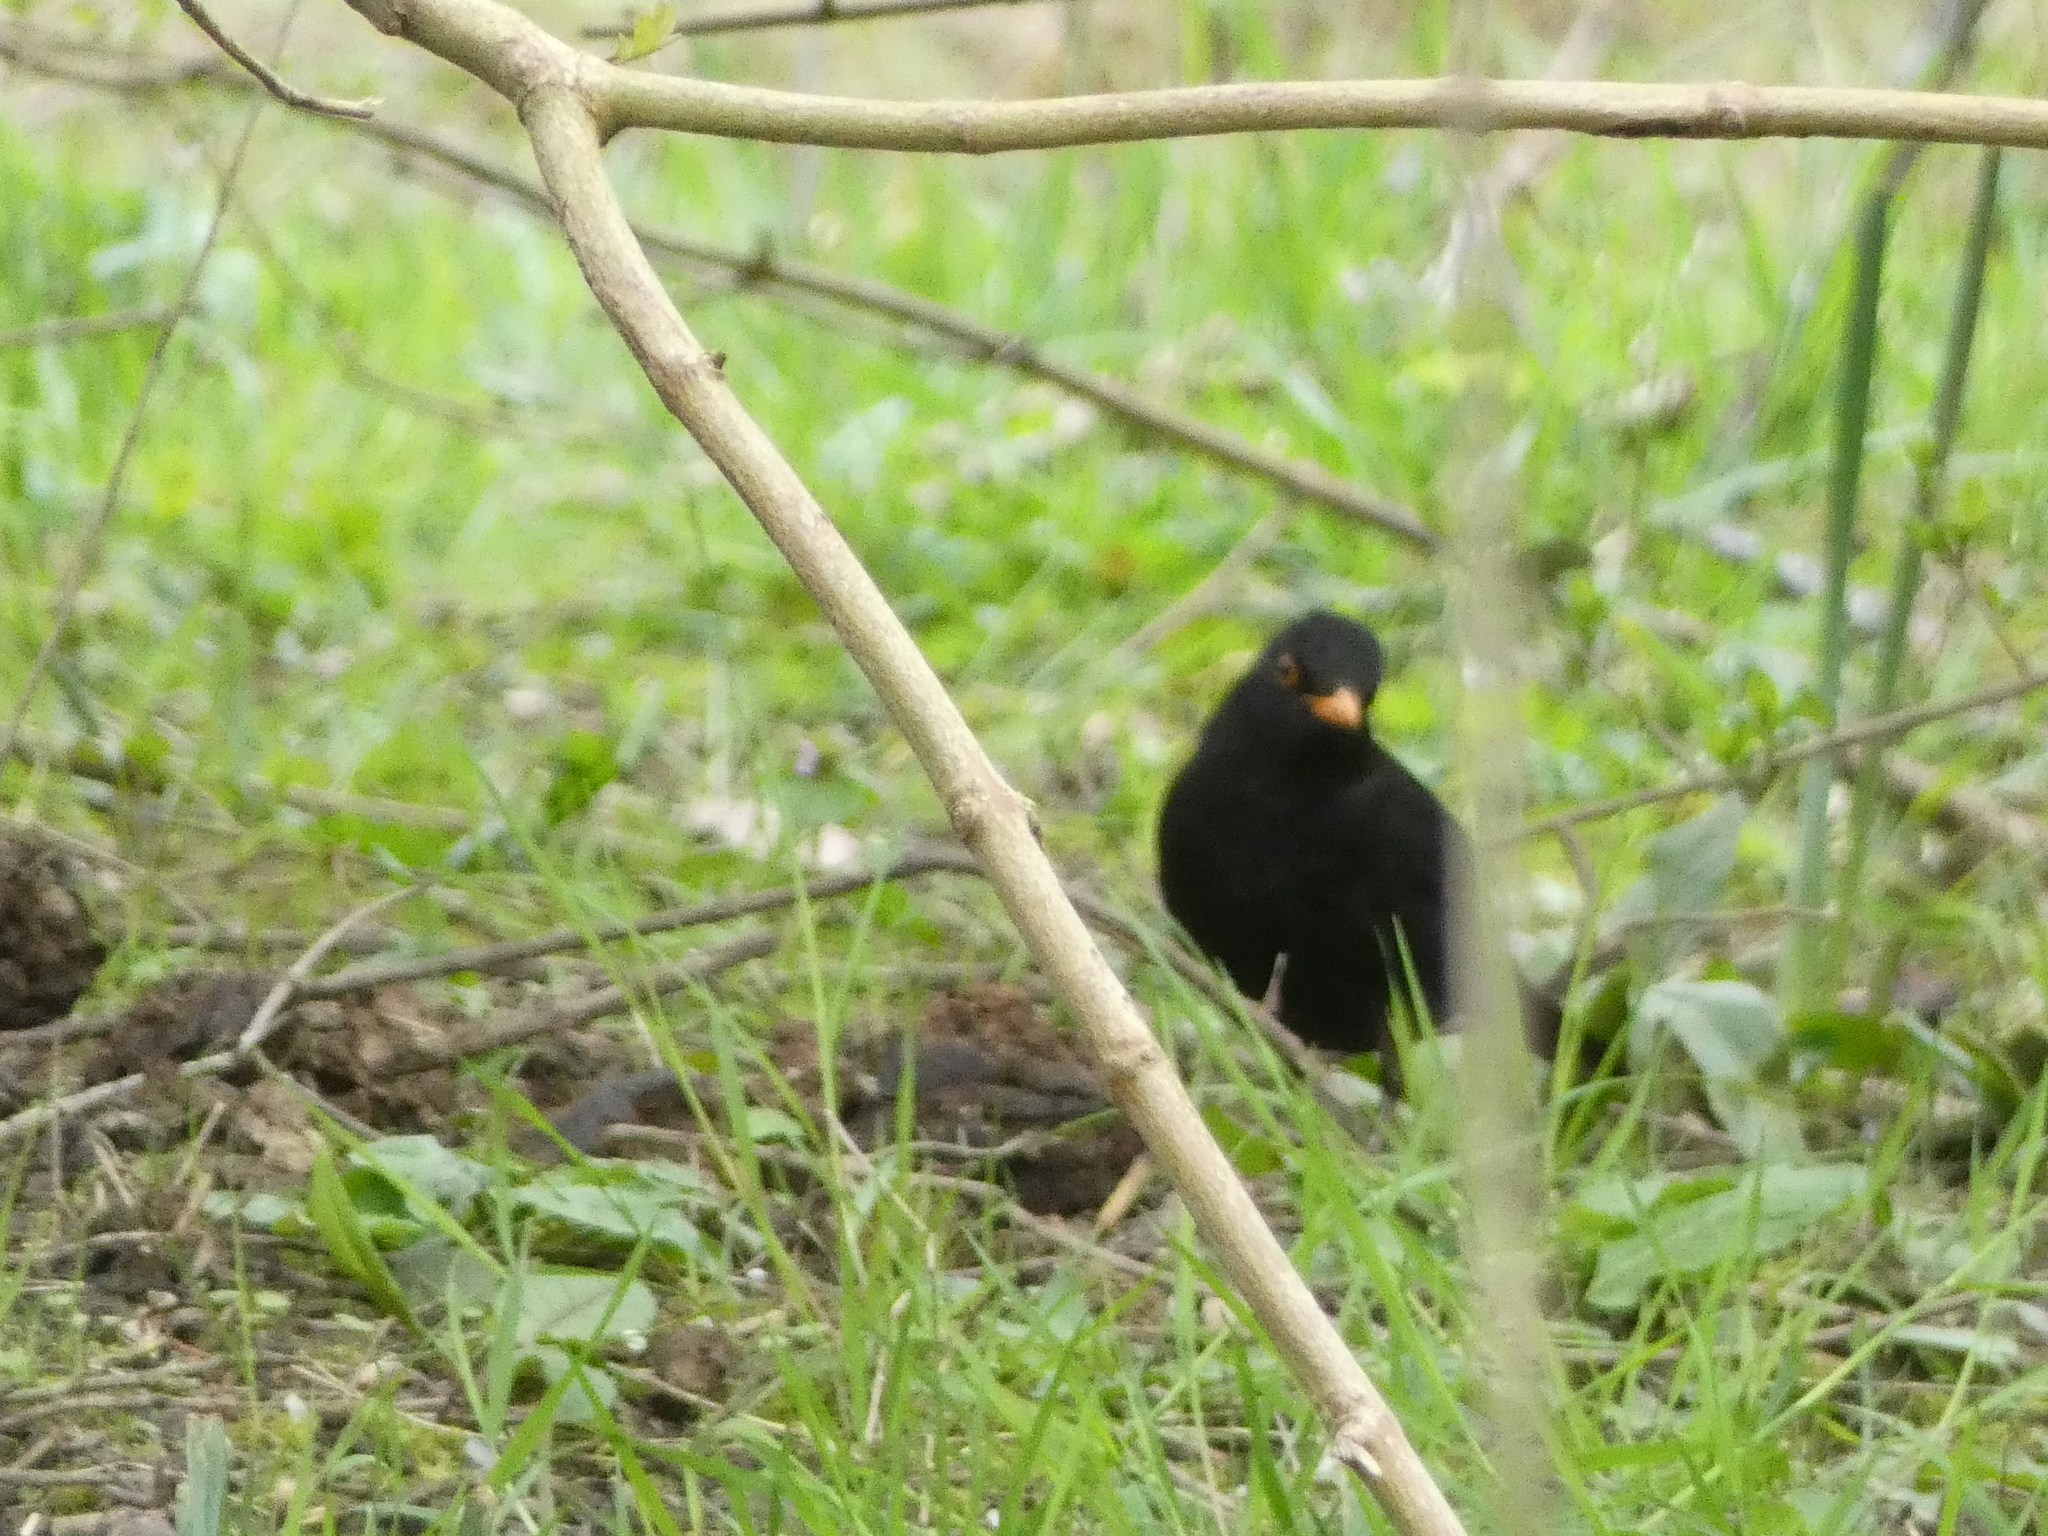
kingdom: Animalia
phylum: Chordata
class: Aves
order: Passeriformes
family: Turdidae
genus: Turdus
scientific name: Turdus merula
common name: Common blackbird
